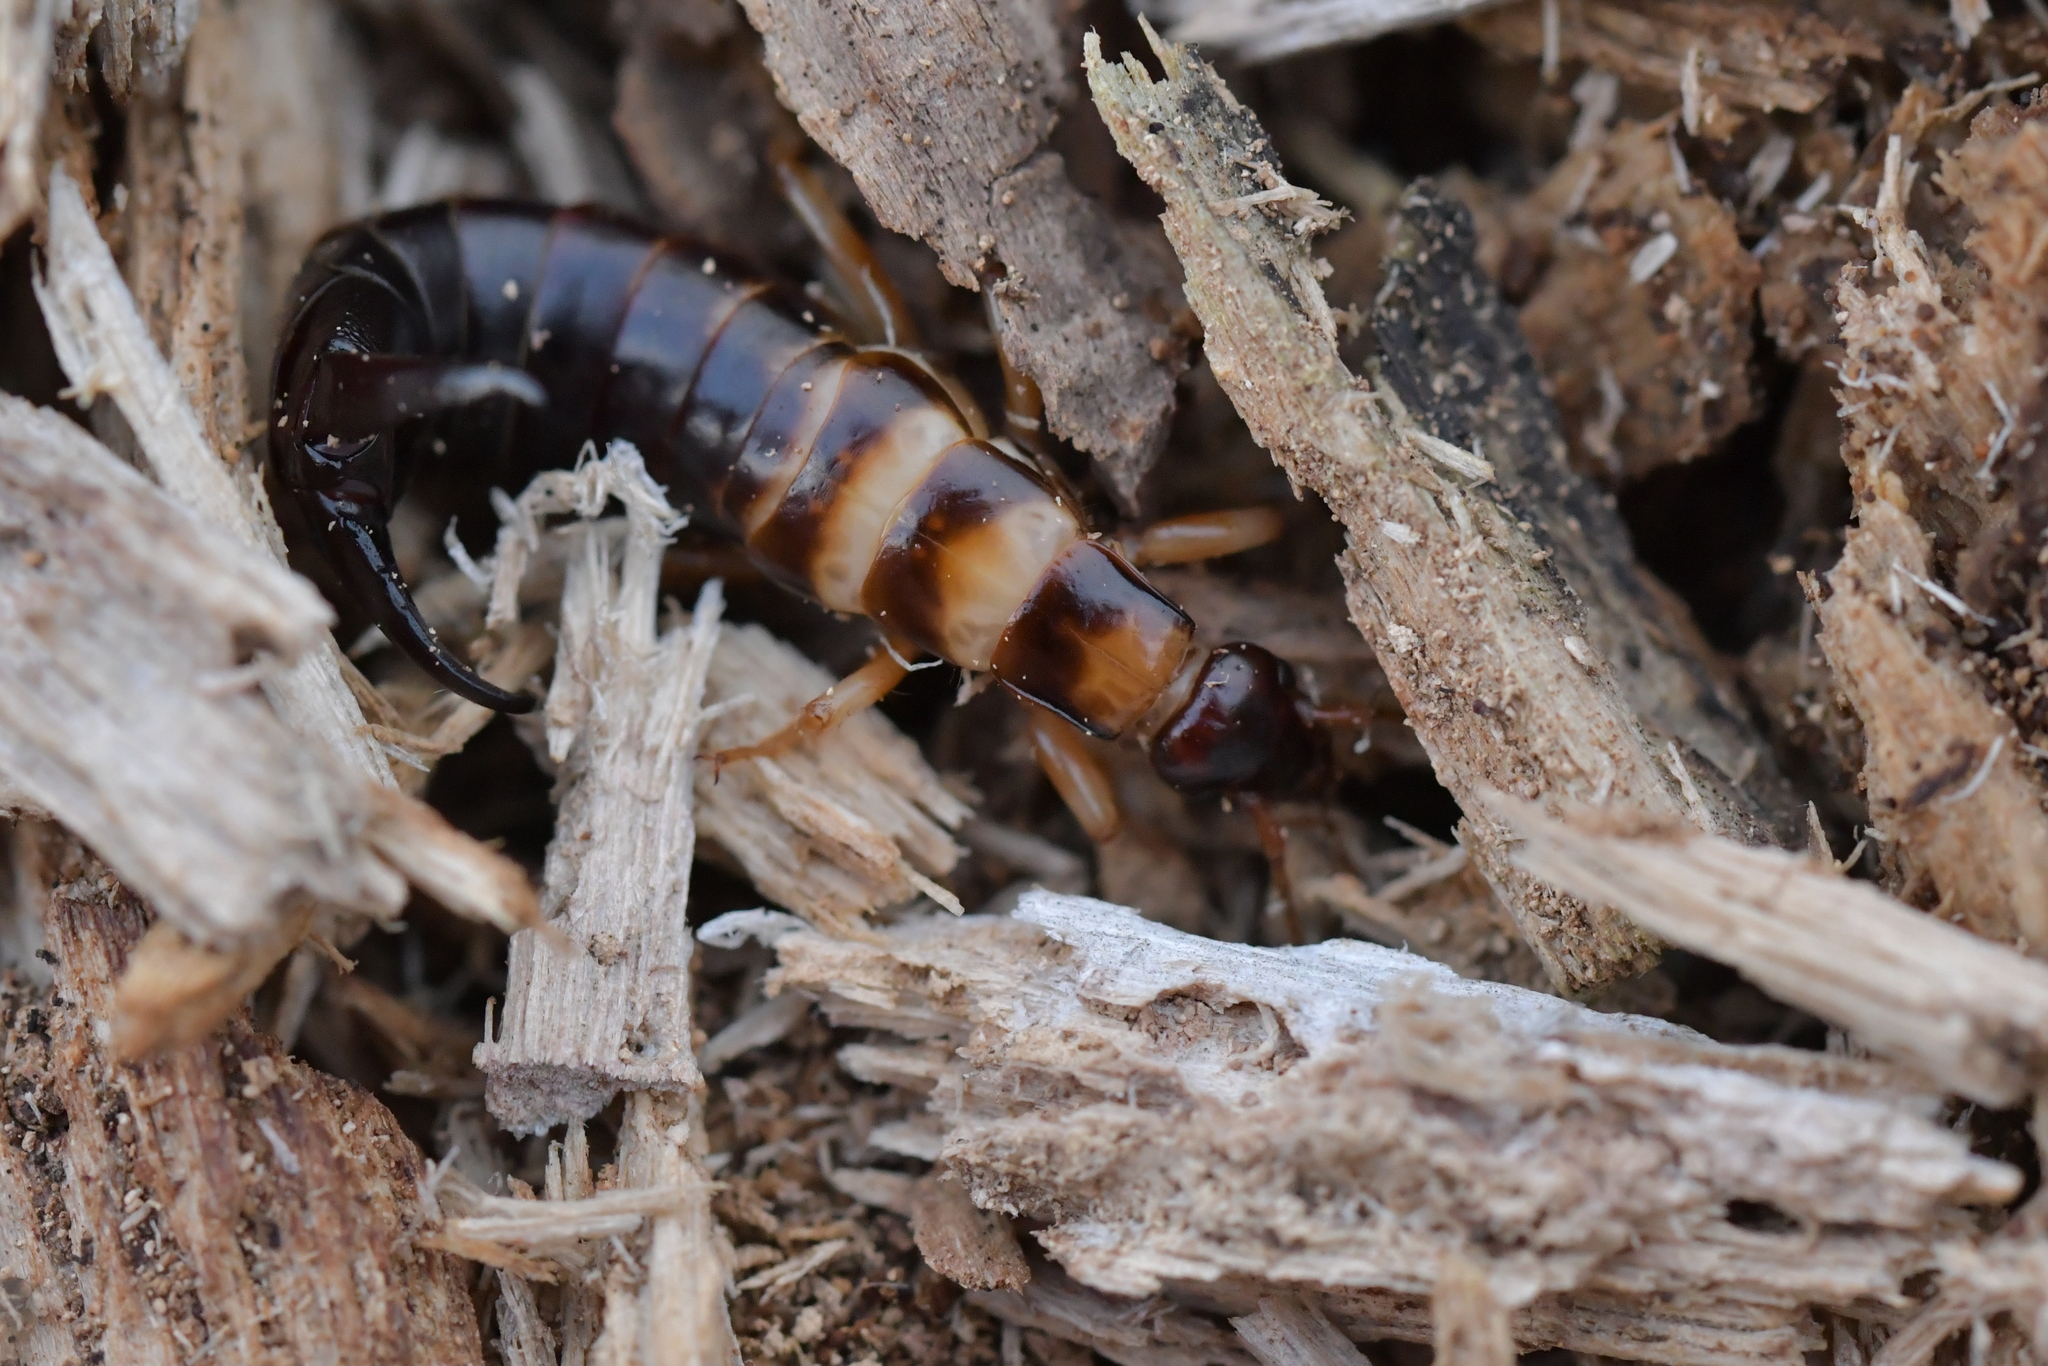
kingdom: Animalia
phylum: Arthropoda
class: Insecta
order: Dermaptera
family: Anisolabididae
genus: Anisolabis
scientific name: Anisolabis littorea
